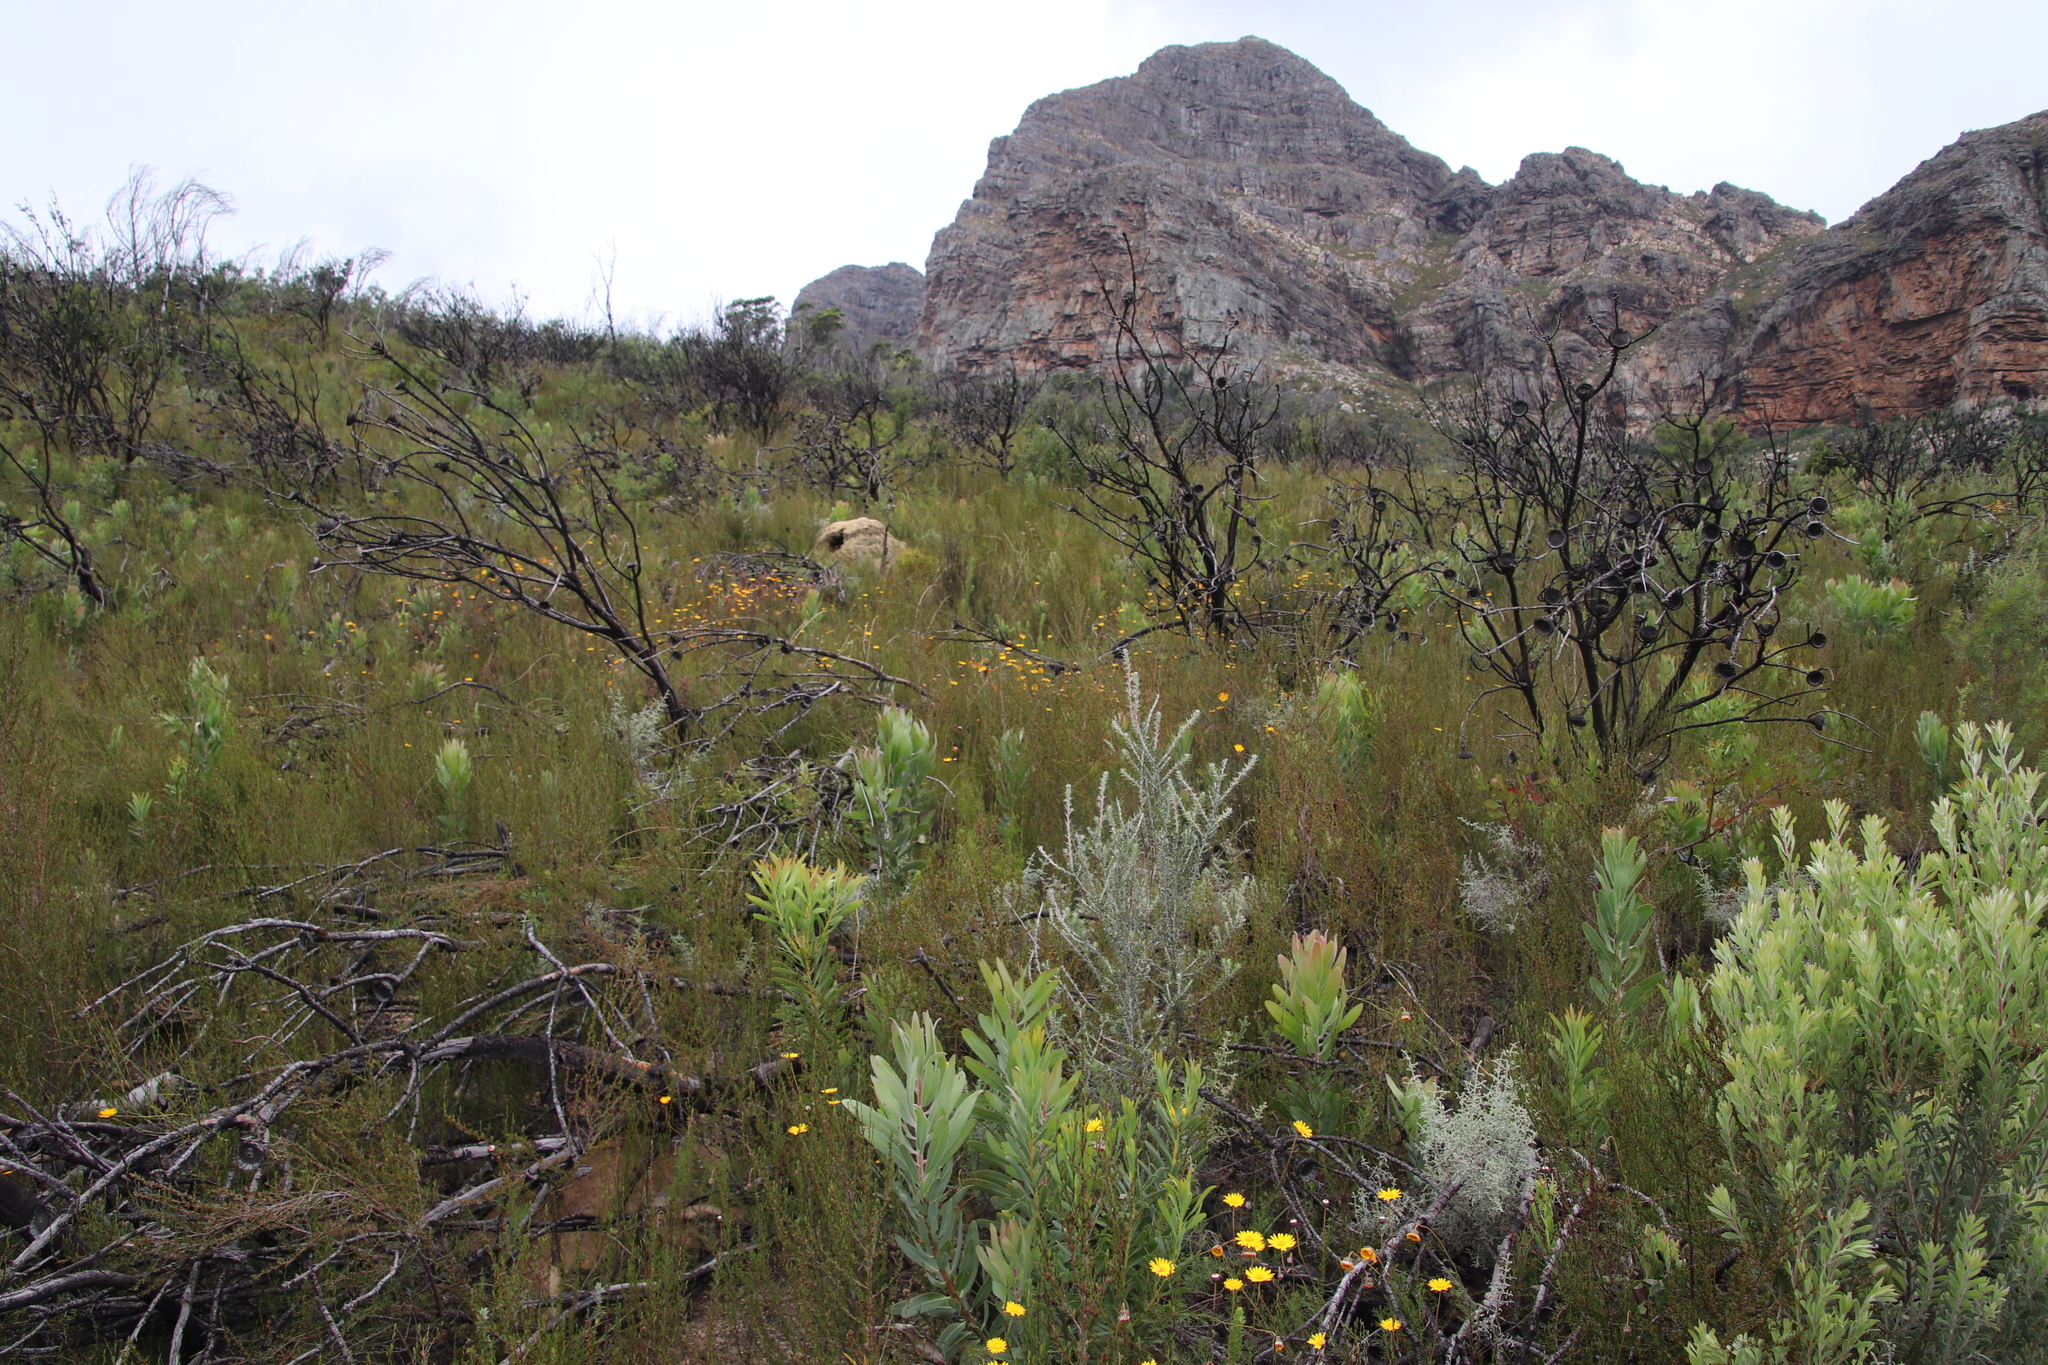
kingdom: Plantae
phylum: Tracheophyta
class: Magnoliopsida
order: Proteales
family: Proteaceae
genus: Protea
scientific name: Protea laurifolia
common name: Grey-leaf sugarbsh
